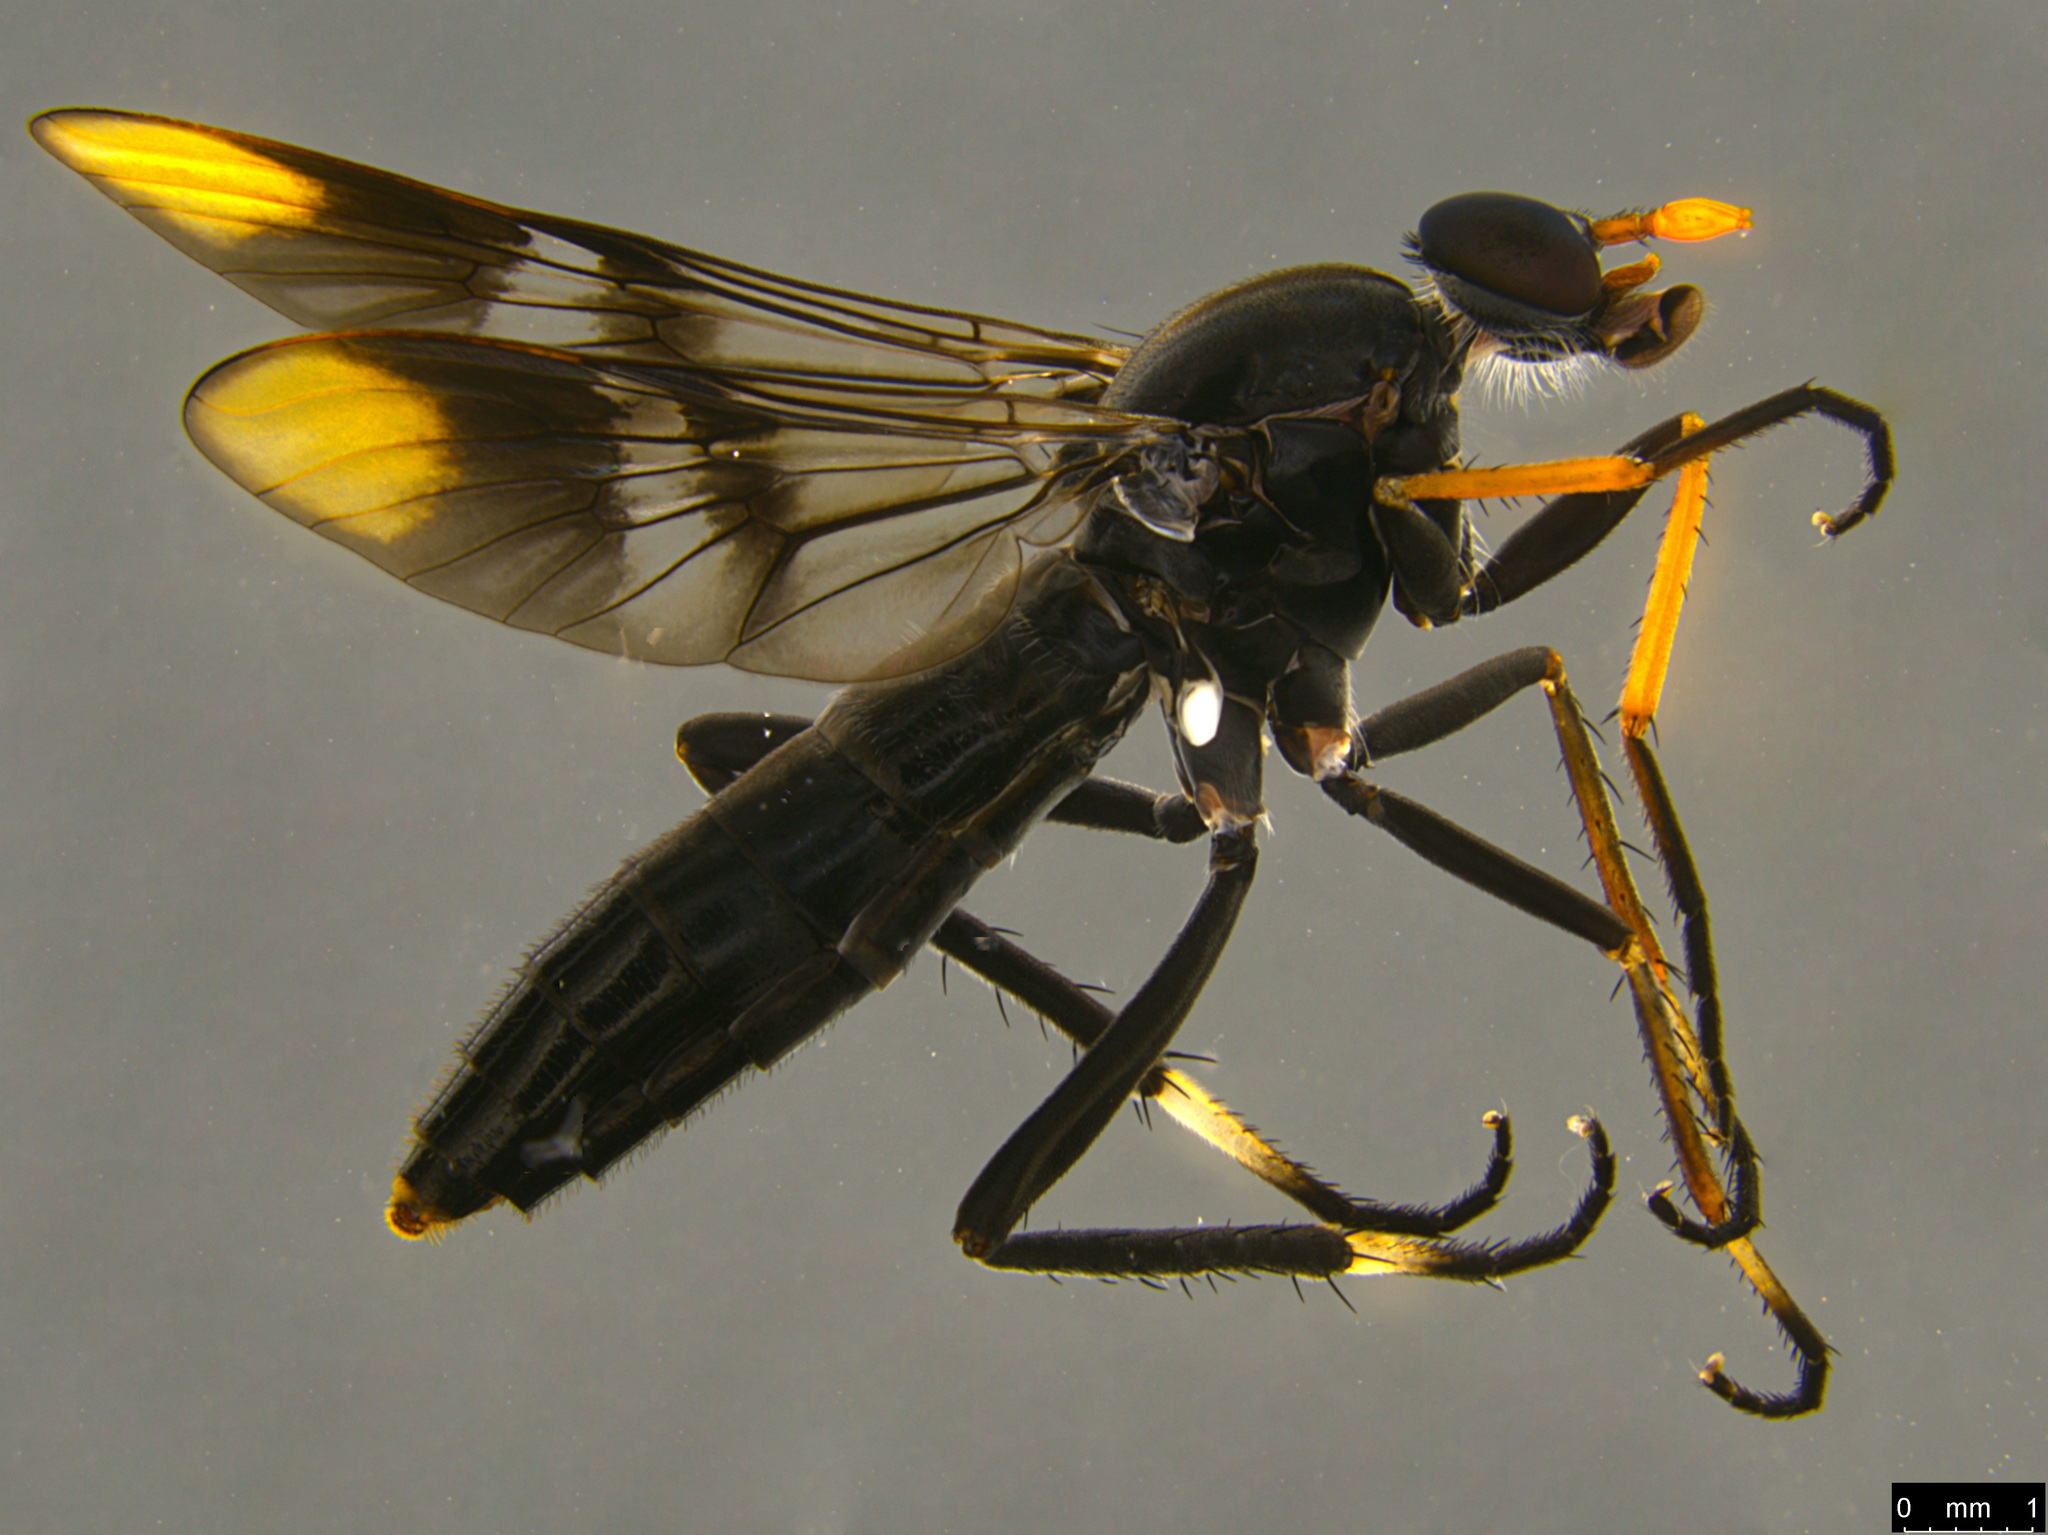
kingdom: Animalia
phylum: Arthropoda
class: Insecta
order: Diptera
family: Therevidae
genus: Ectinorhynchus
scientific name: Ectinorhynchus pyrrhotelus
